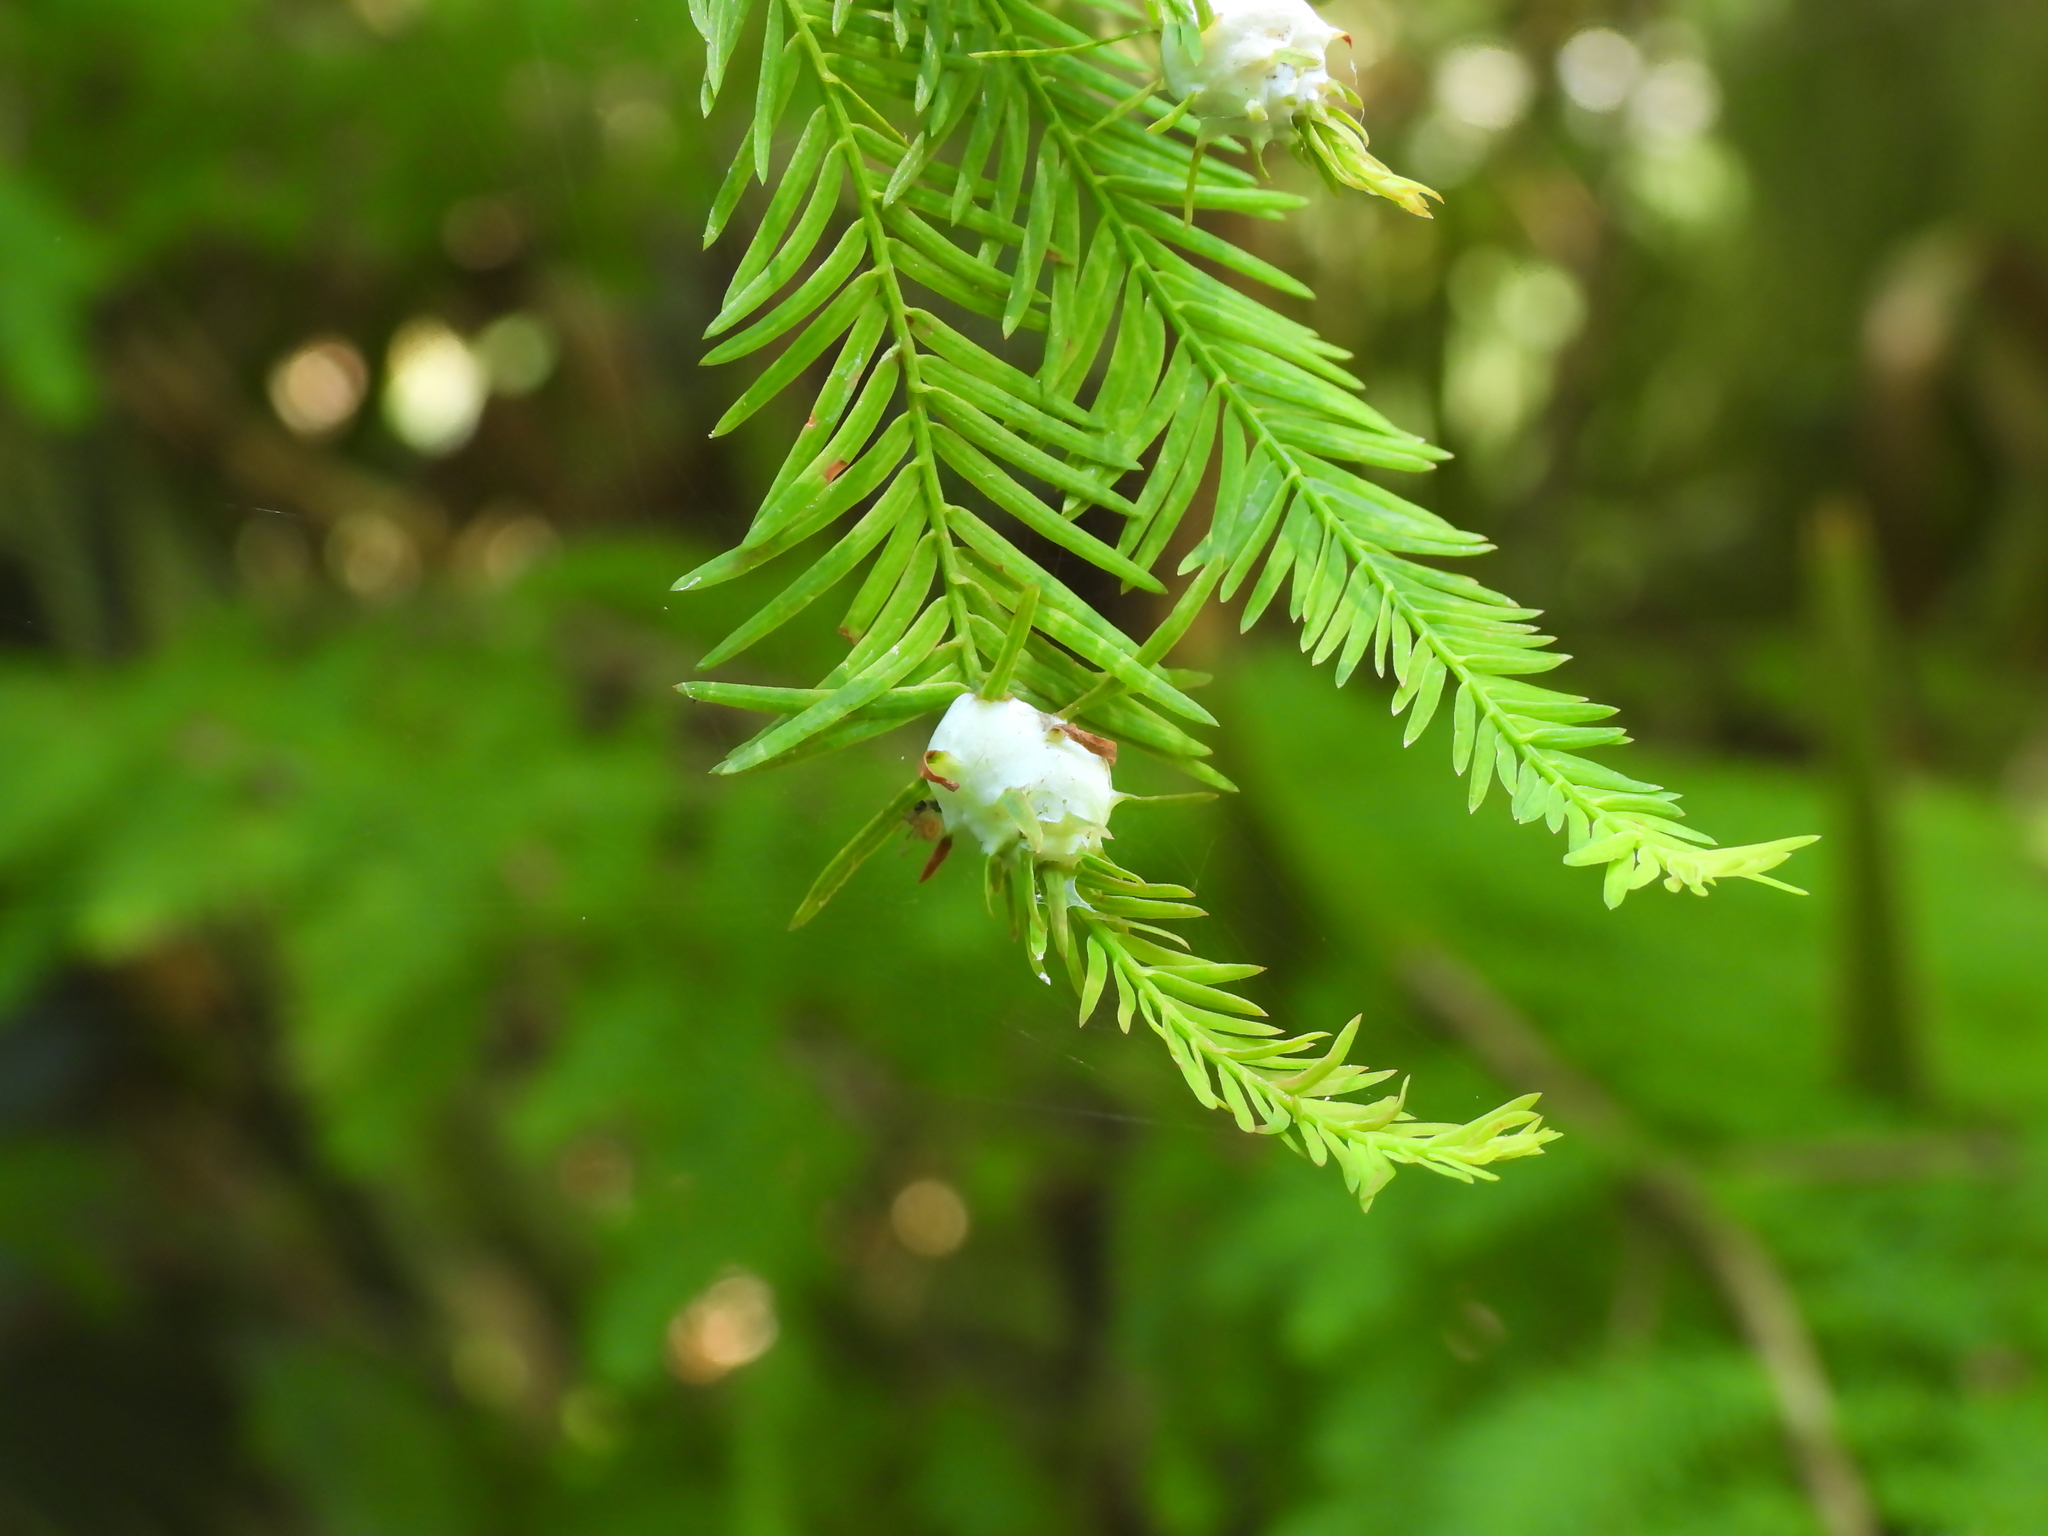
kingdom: Animalia
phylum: Arthropoda
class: Insecta
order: Diptera
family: Cecidomyiidae
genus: Taxodiomyia
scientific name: Taxodiomyia cupressiananassa
